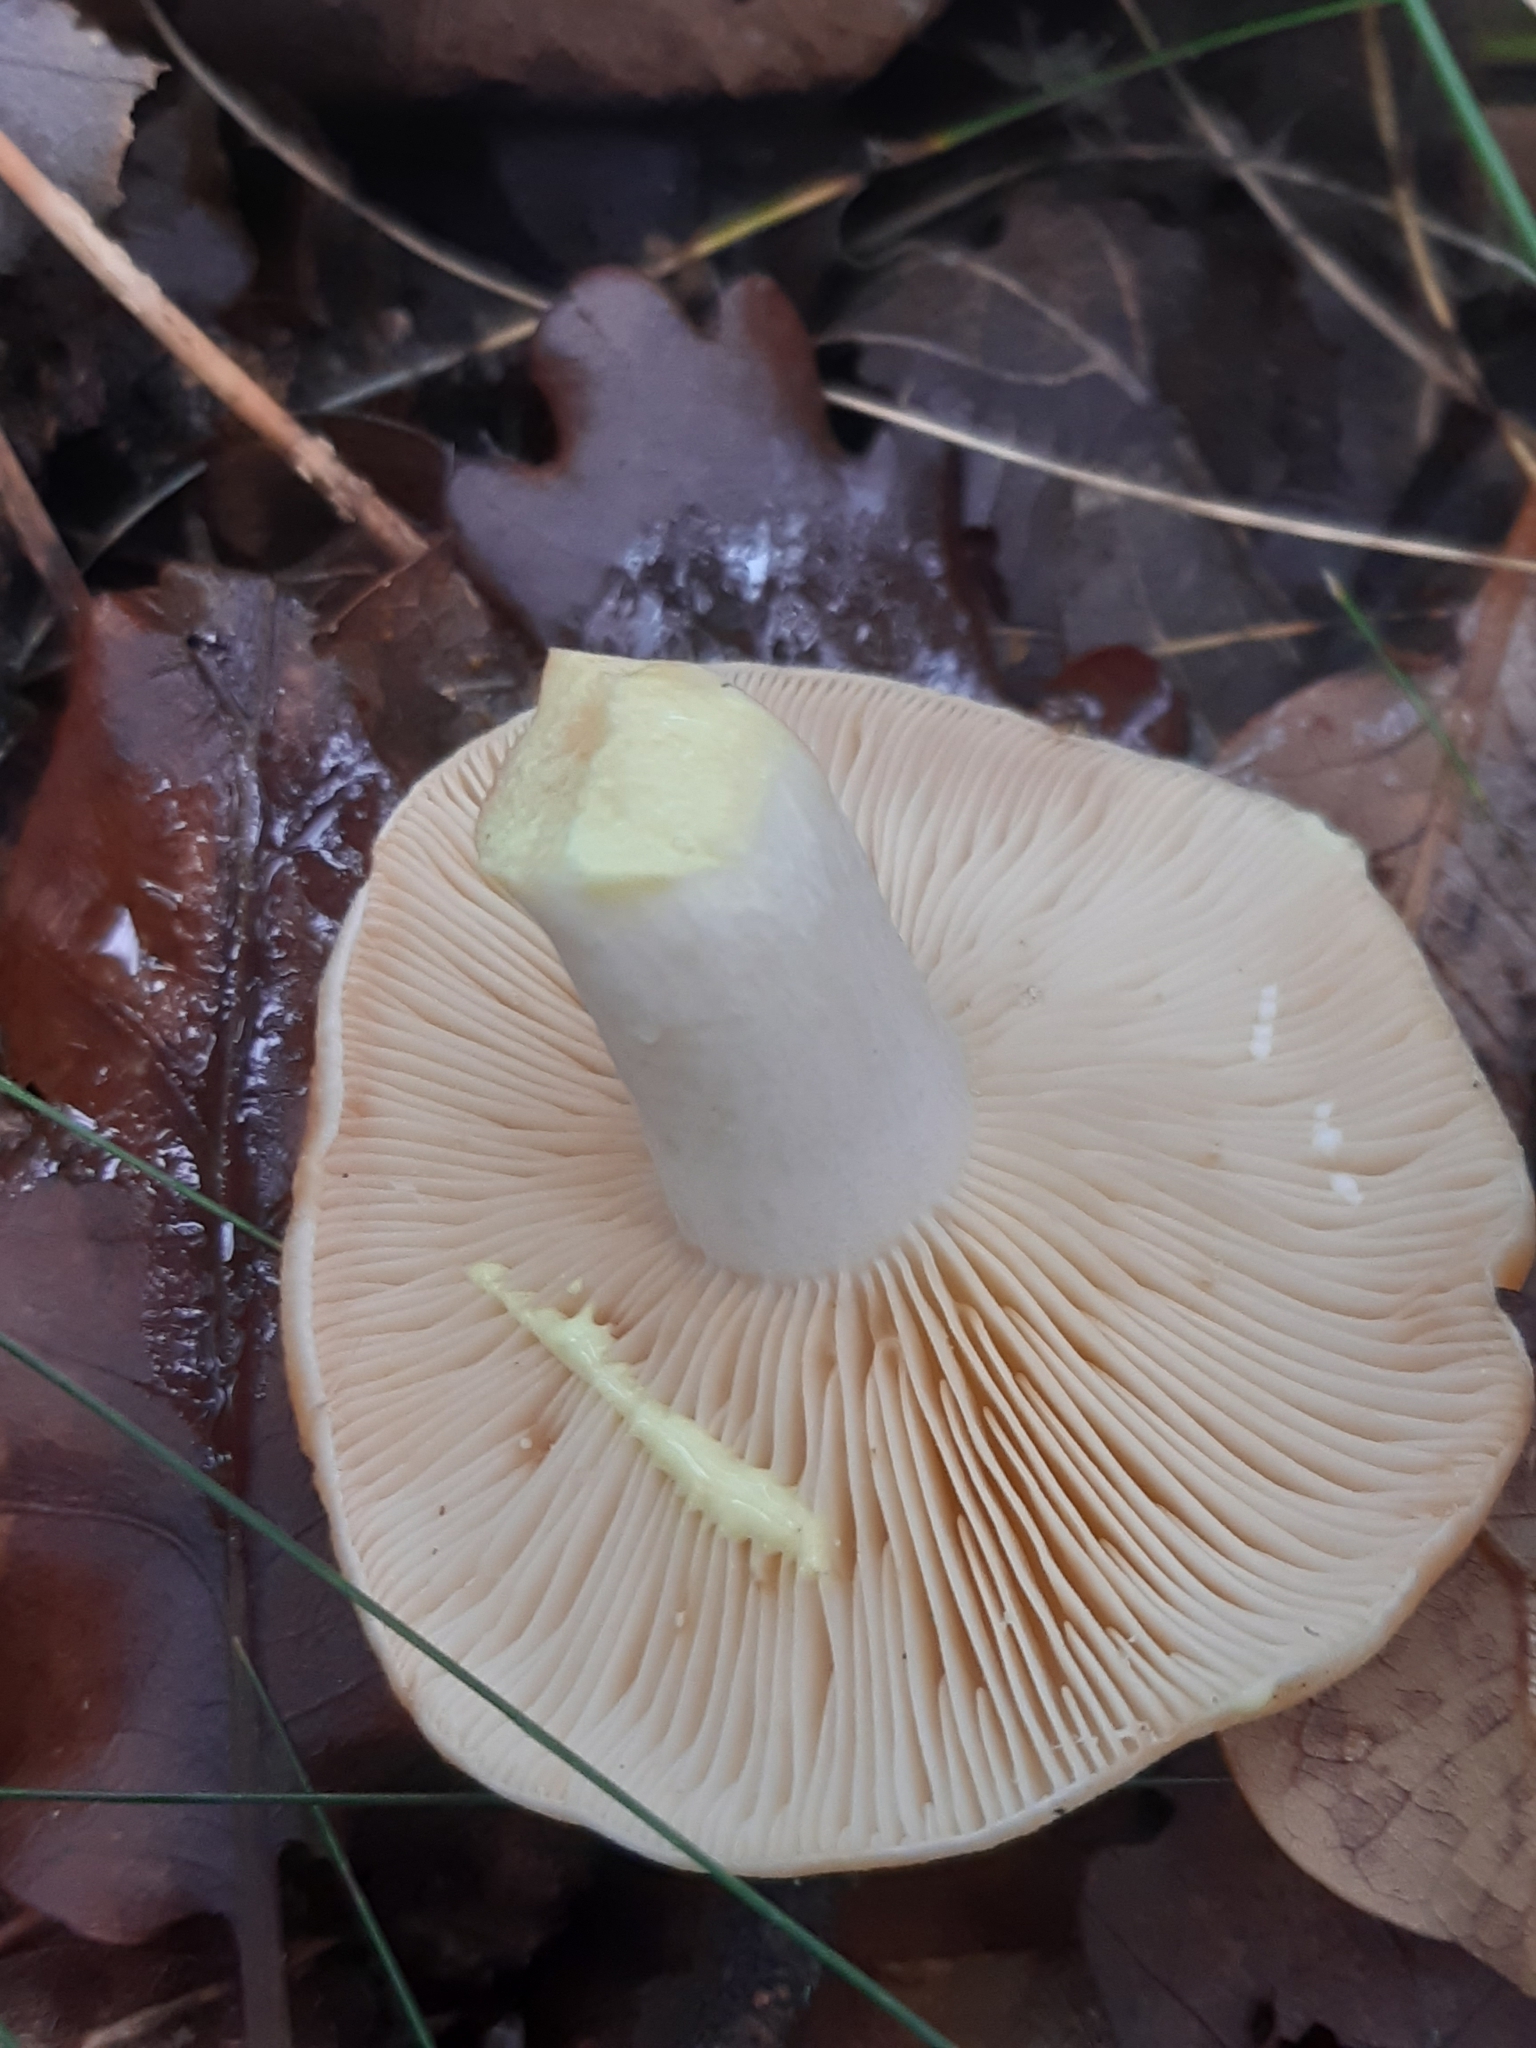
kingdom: Fungi
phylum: Basidiomycota
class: Agaricomycetes
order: Russulales
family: Russulaceae
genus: Lactarius
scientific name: Lactarius chrysorrheus
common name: Yellowdrop milkcap
